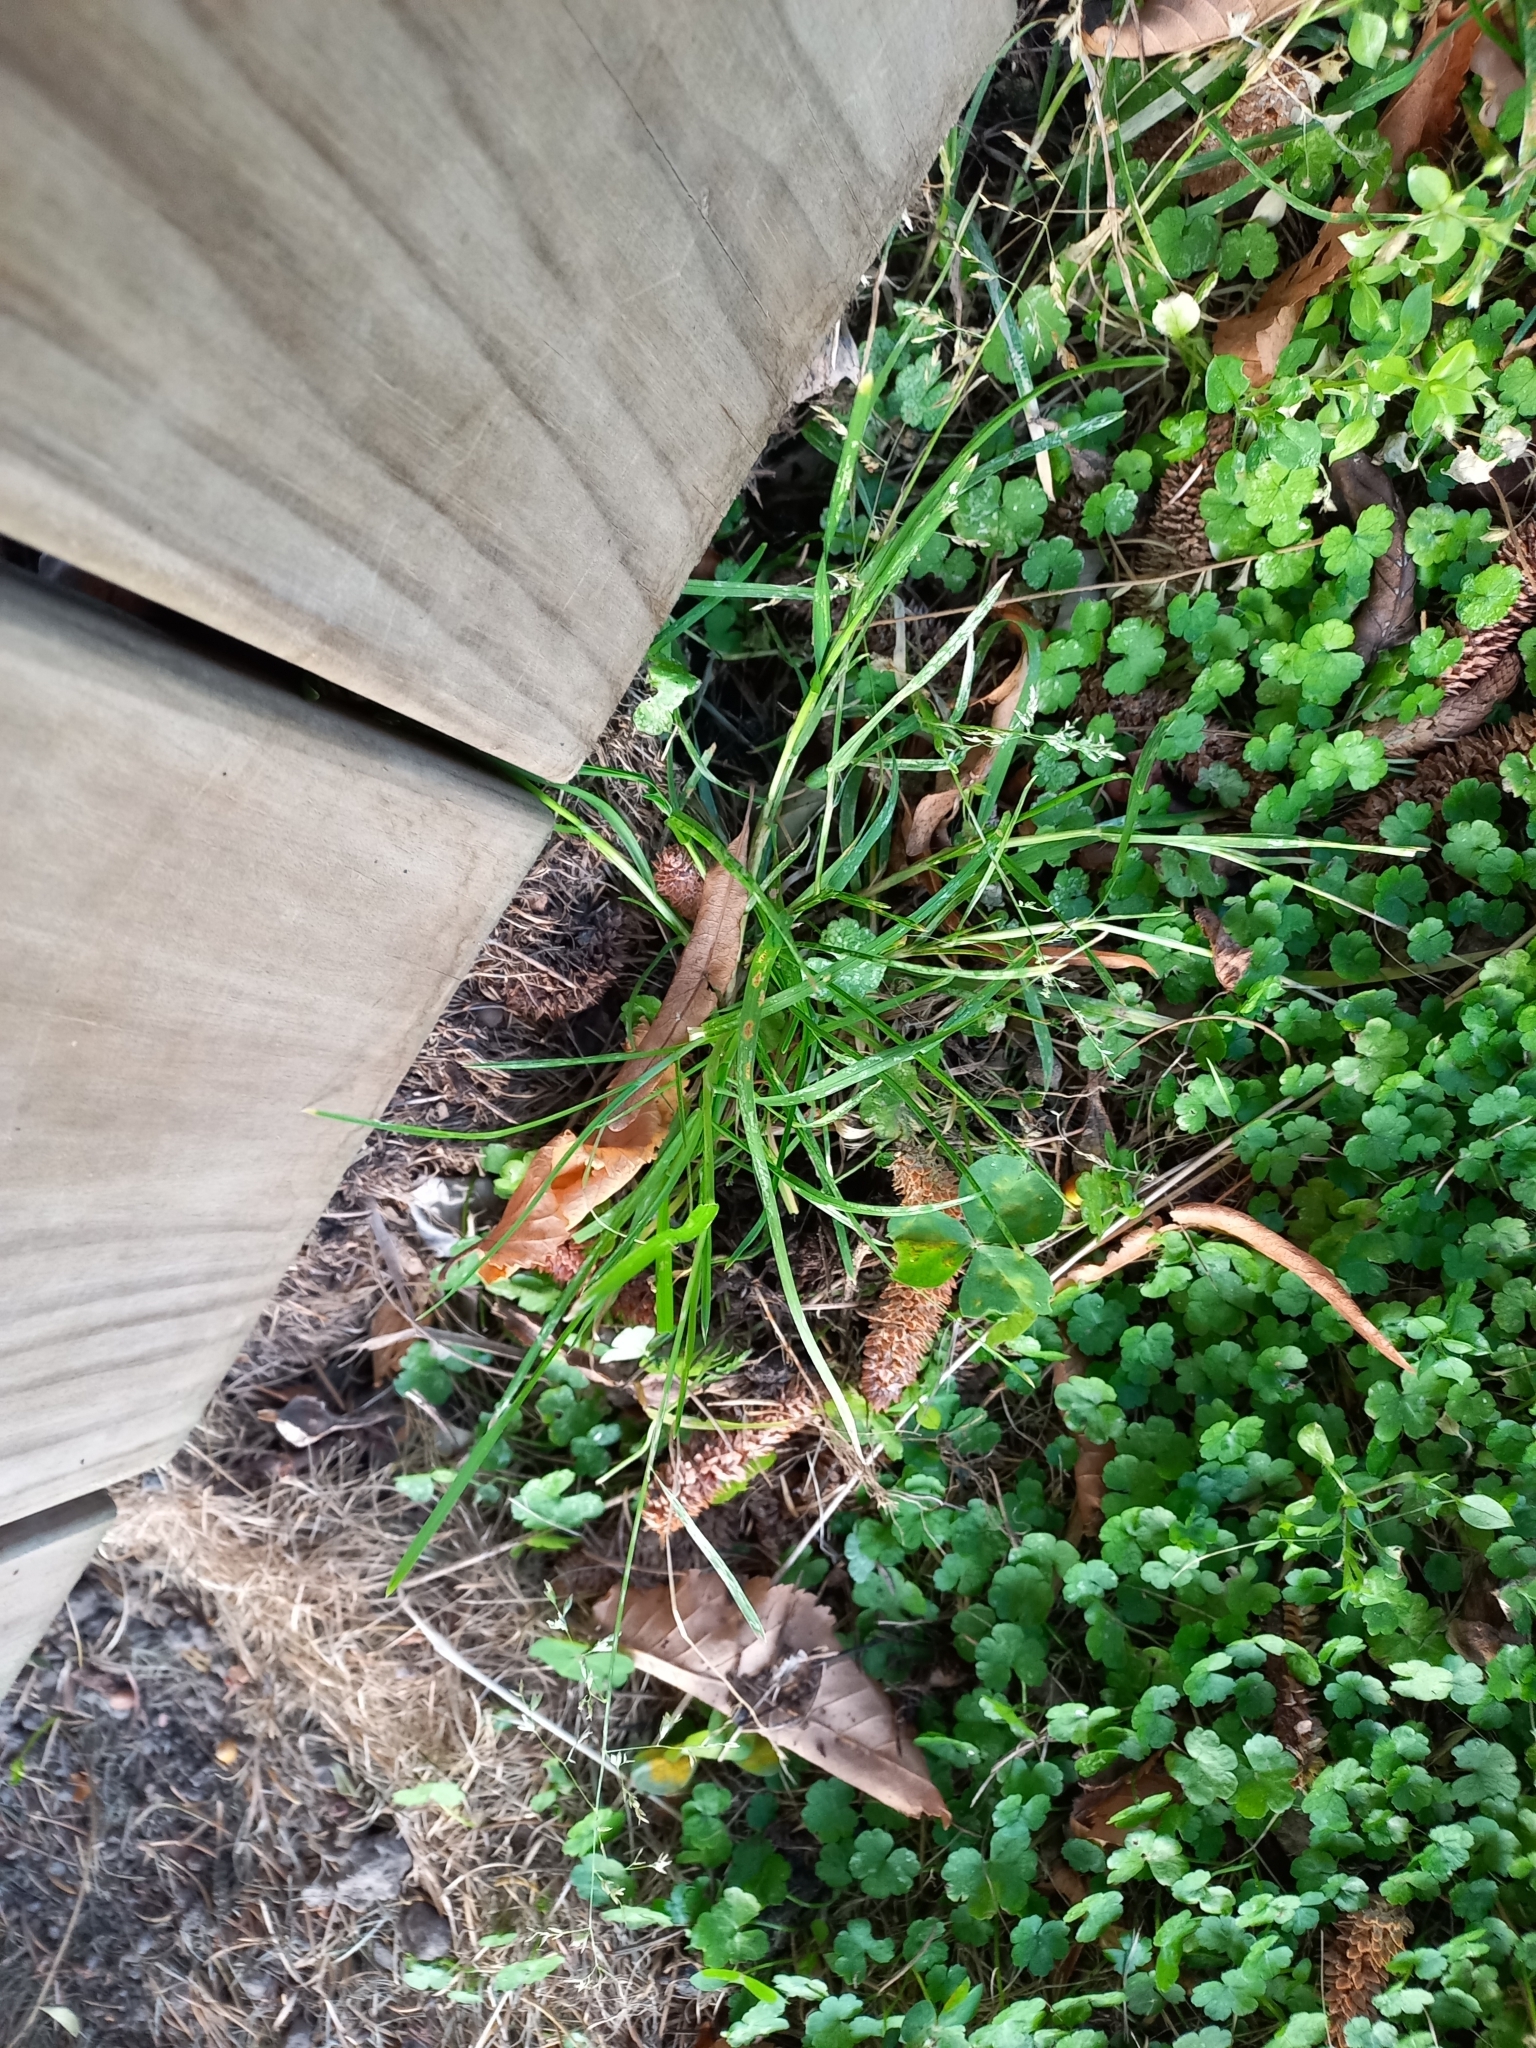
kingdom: Plantae
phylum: Tracheophyta
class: Liliopsida
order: Poales
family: Poaceae
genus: Poa
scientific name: Poa annua
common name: Annual bluegrass
